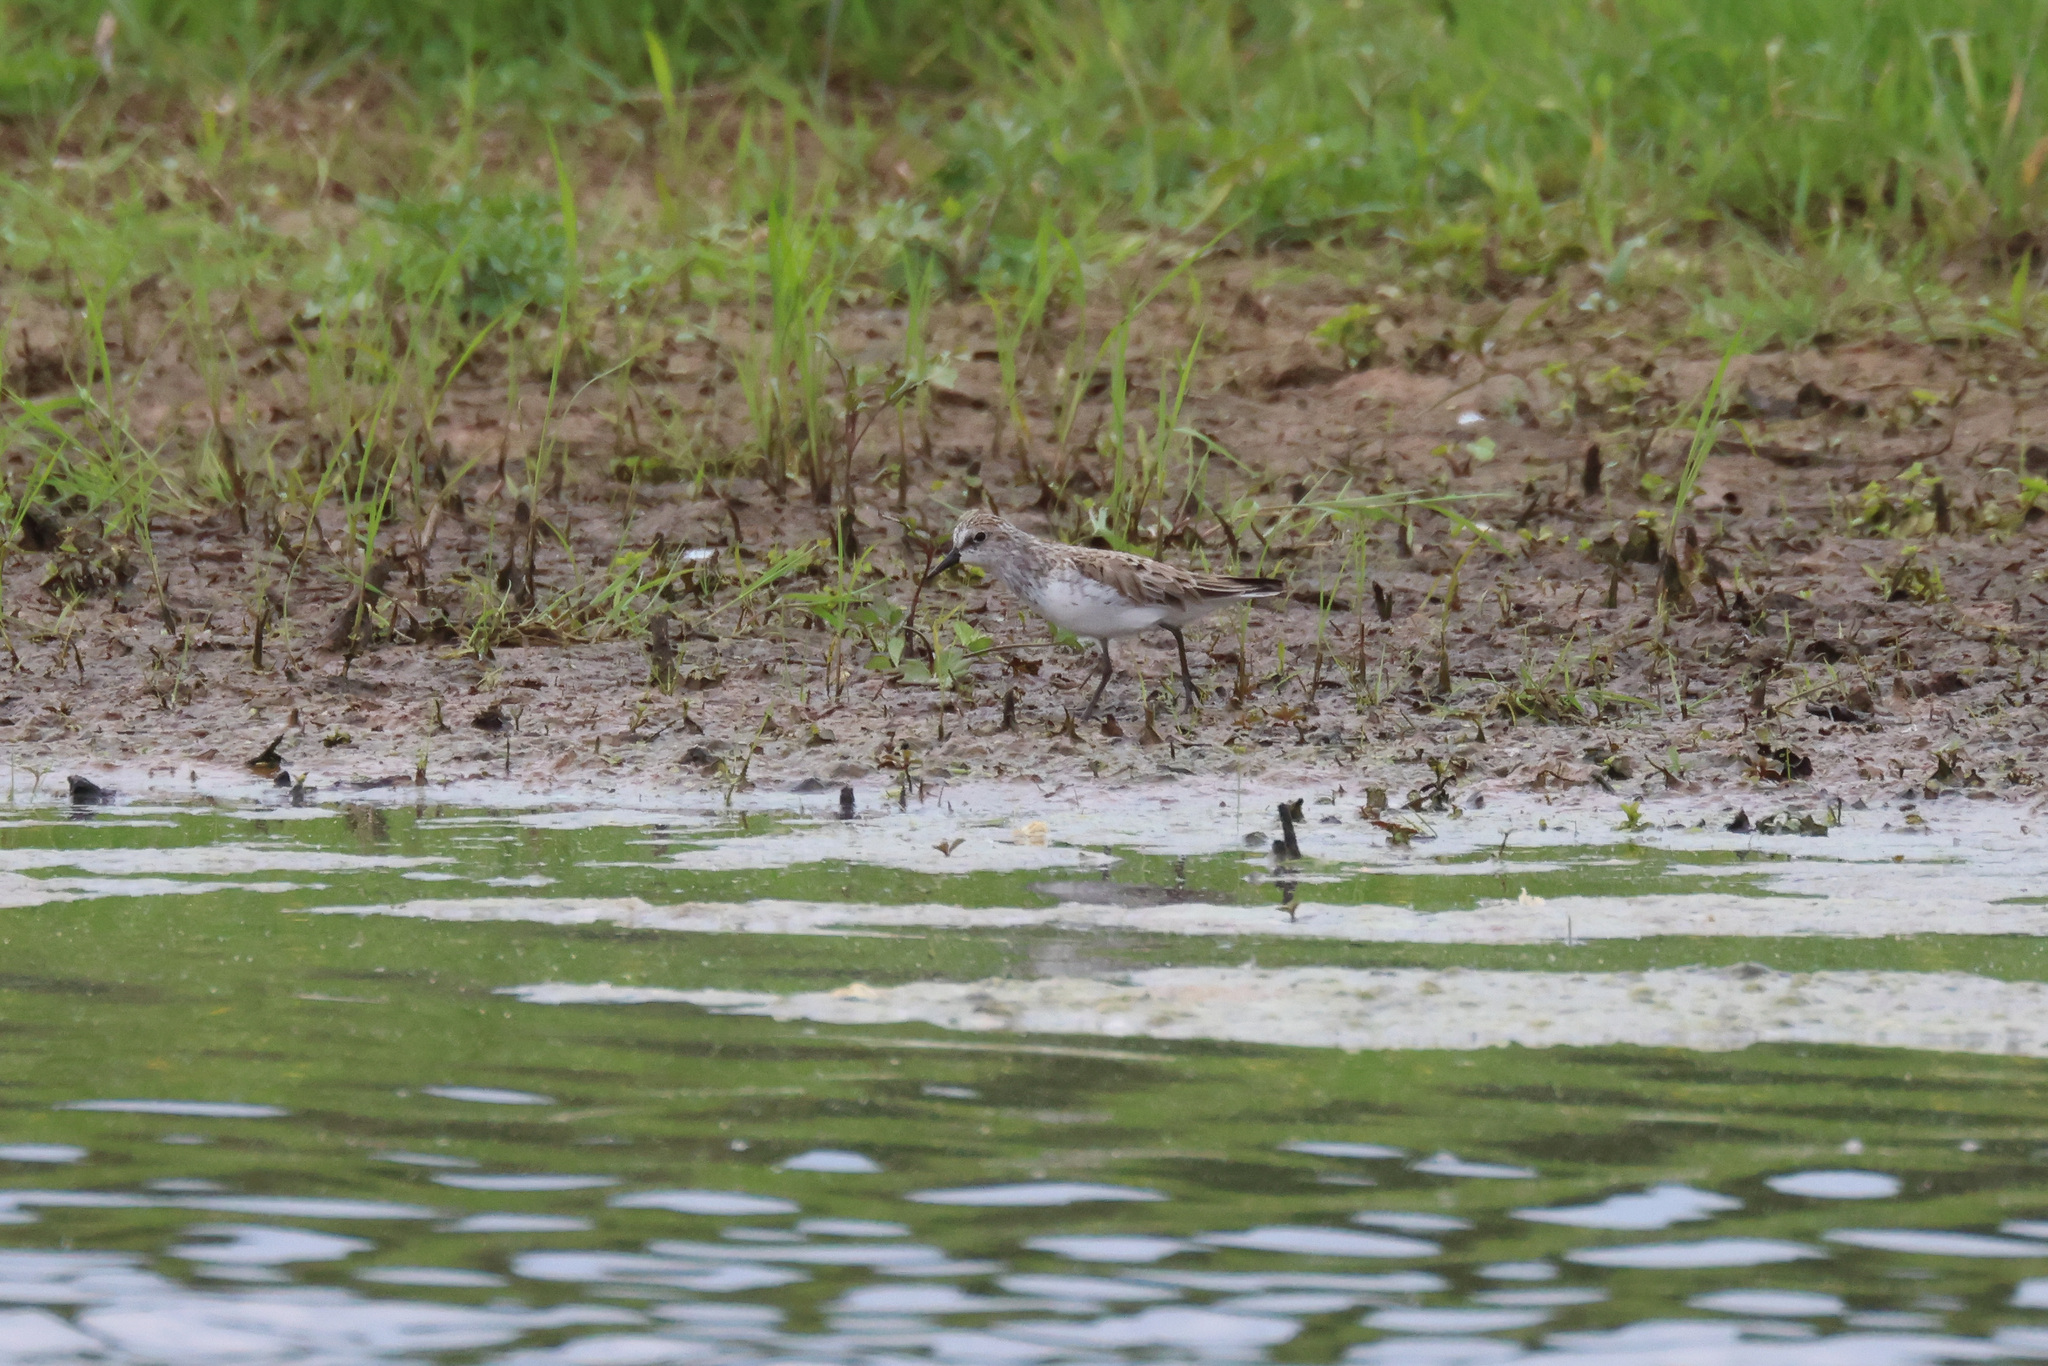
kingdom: Animalia
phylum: Chordata
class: Aves
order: Charadriiformes
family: Scolopacidae
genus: Calidris
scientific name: Calidris pusilla
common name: Semipalmated sandpiper
